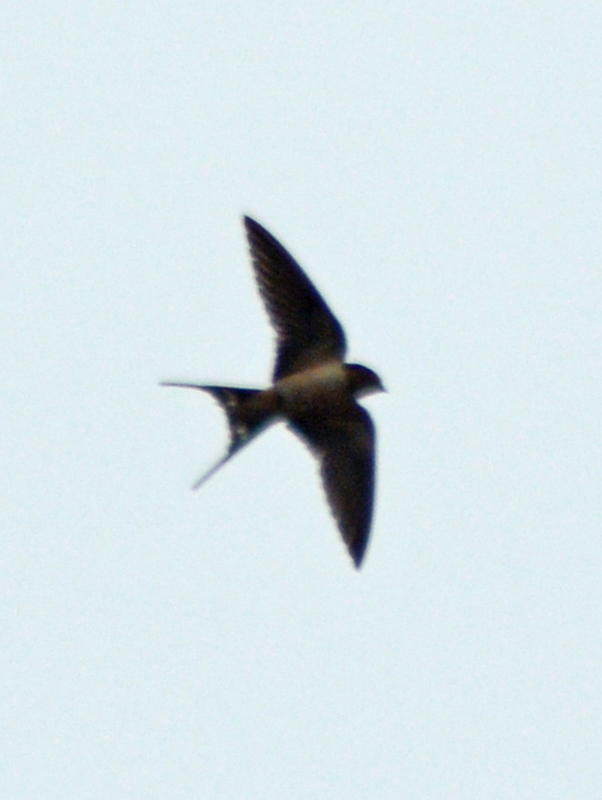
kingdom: Animalia
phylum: Chordata
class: Aves
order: Passeriformes
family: Hirundinidae
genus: Hirundo
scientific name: Hirundo rustica
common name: Barn swallow
